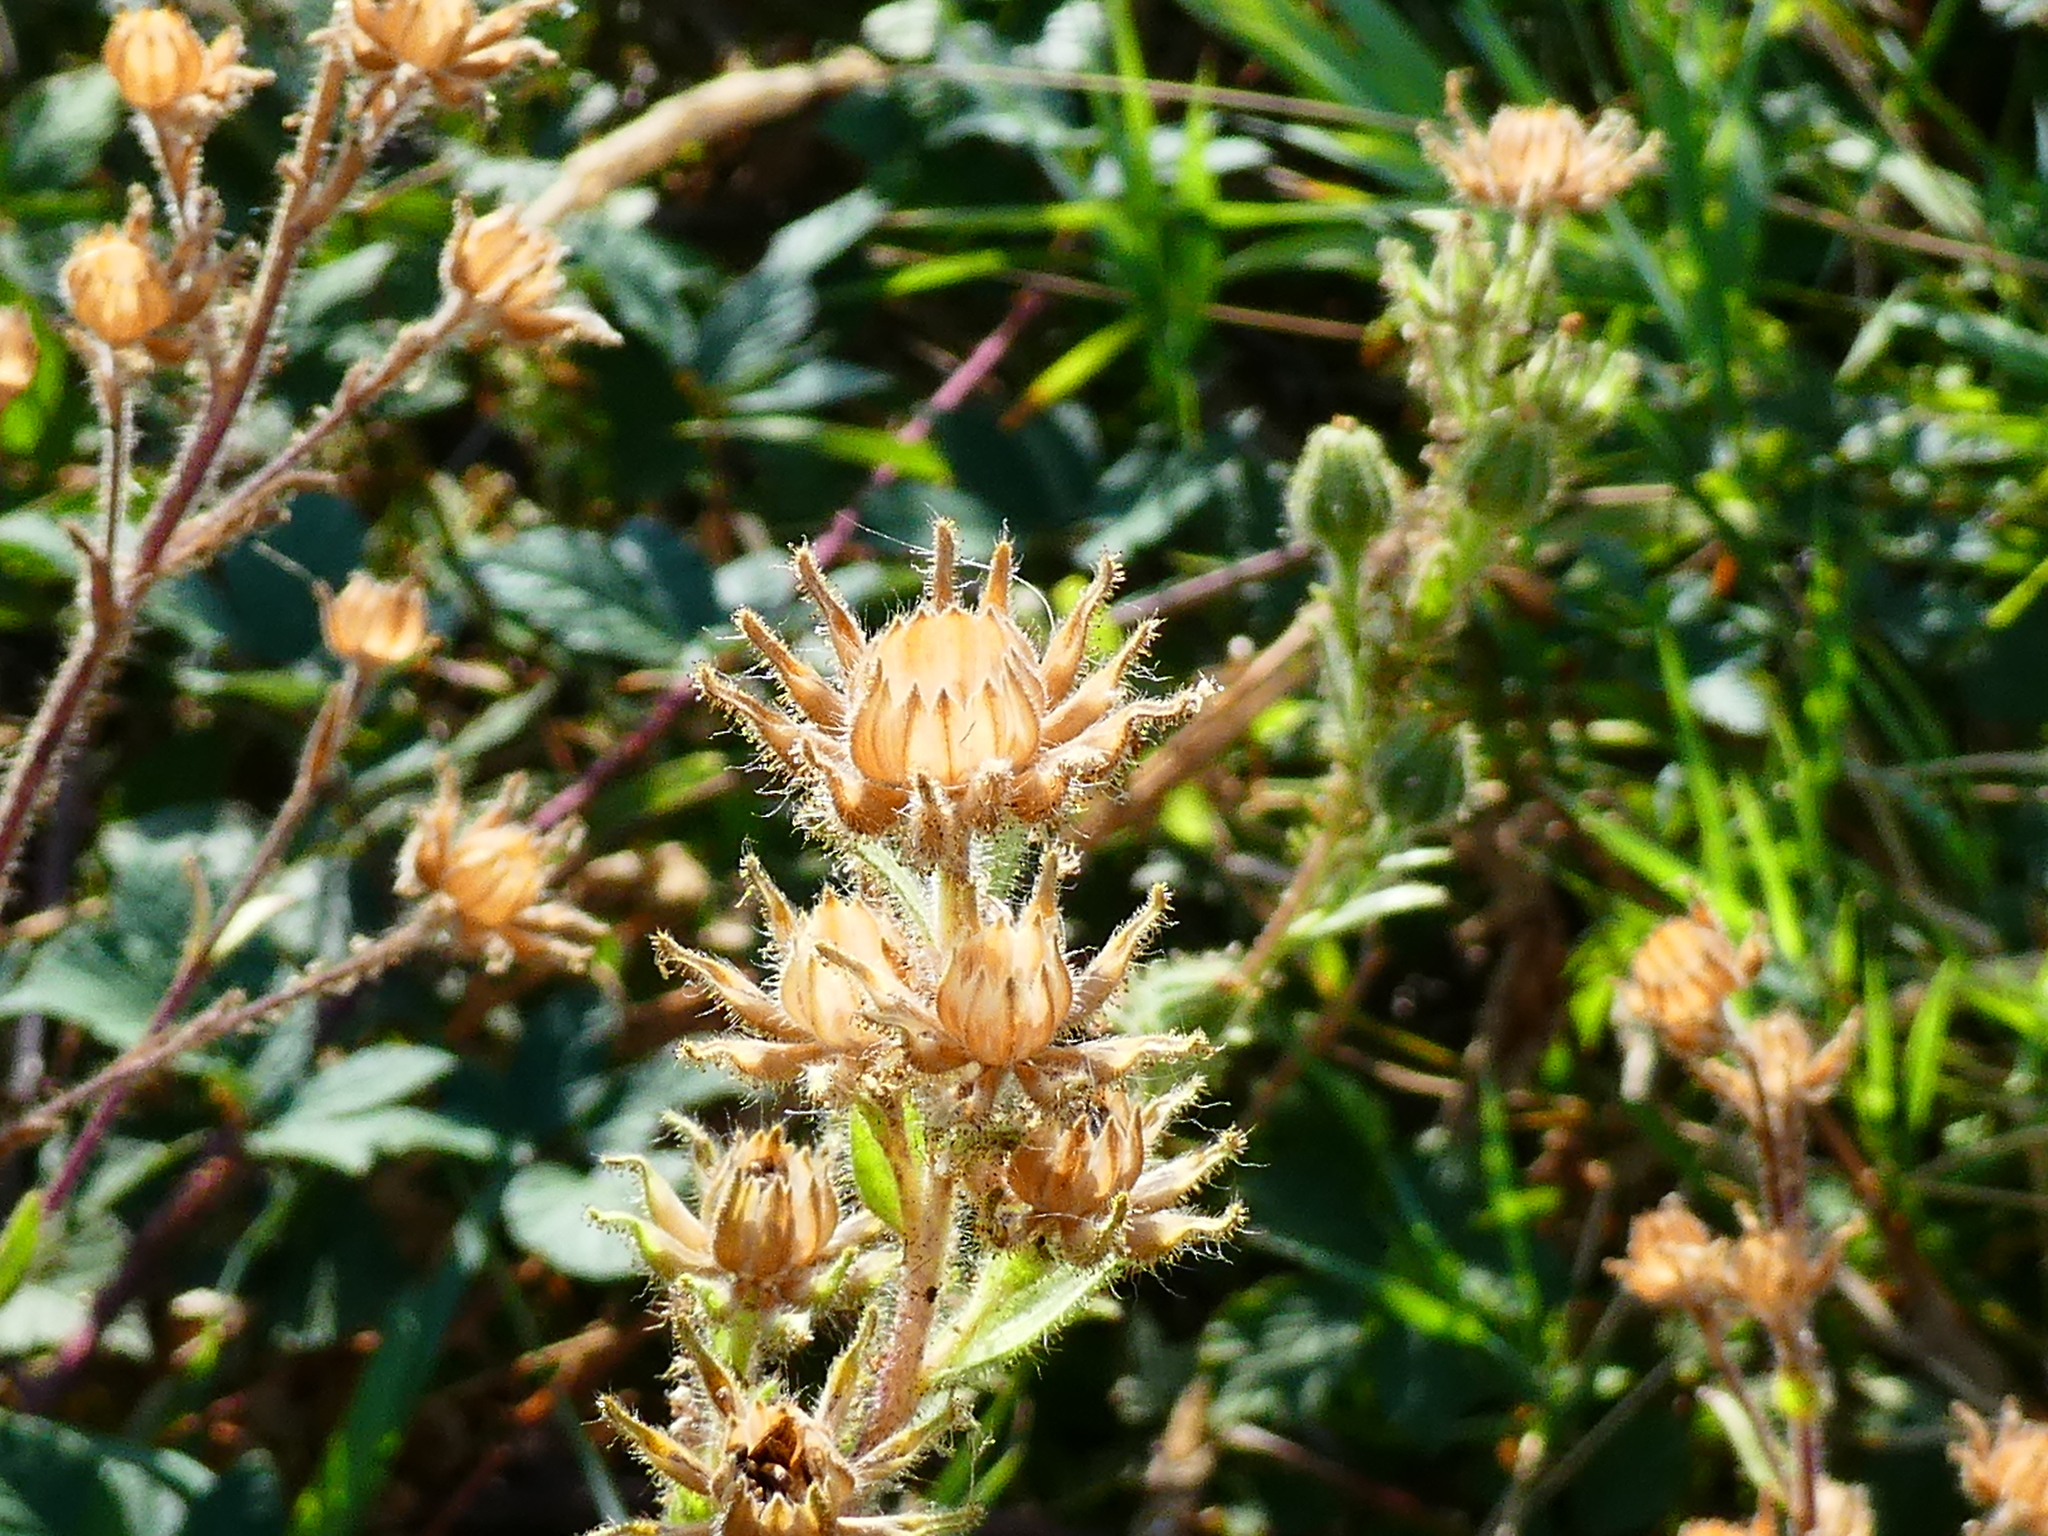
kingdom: Plantae
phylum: Tracheophyta
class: Magnoliopsida
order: Asterales
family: Asteraceae
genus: Madia
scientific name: Madia sativa
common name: Coast tarweed
